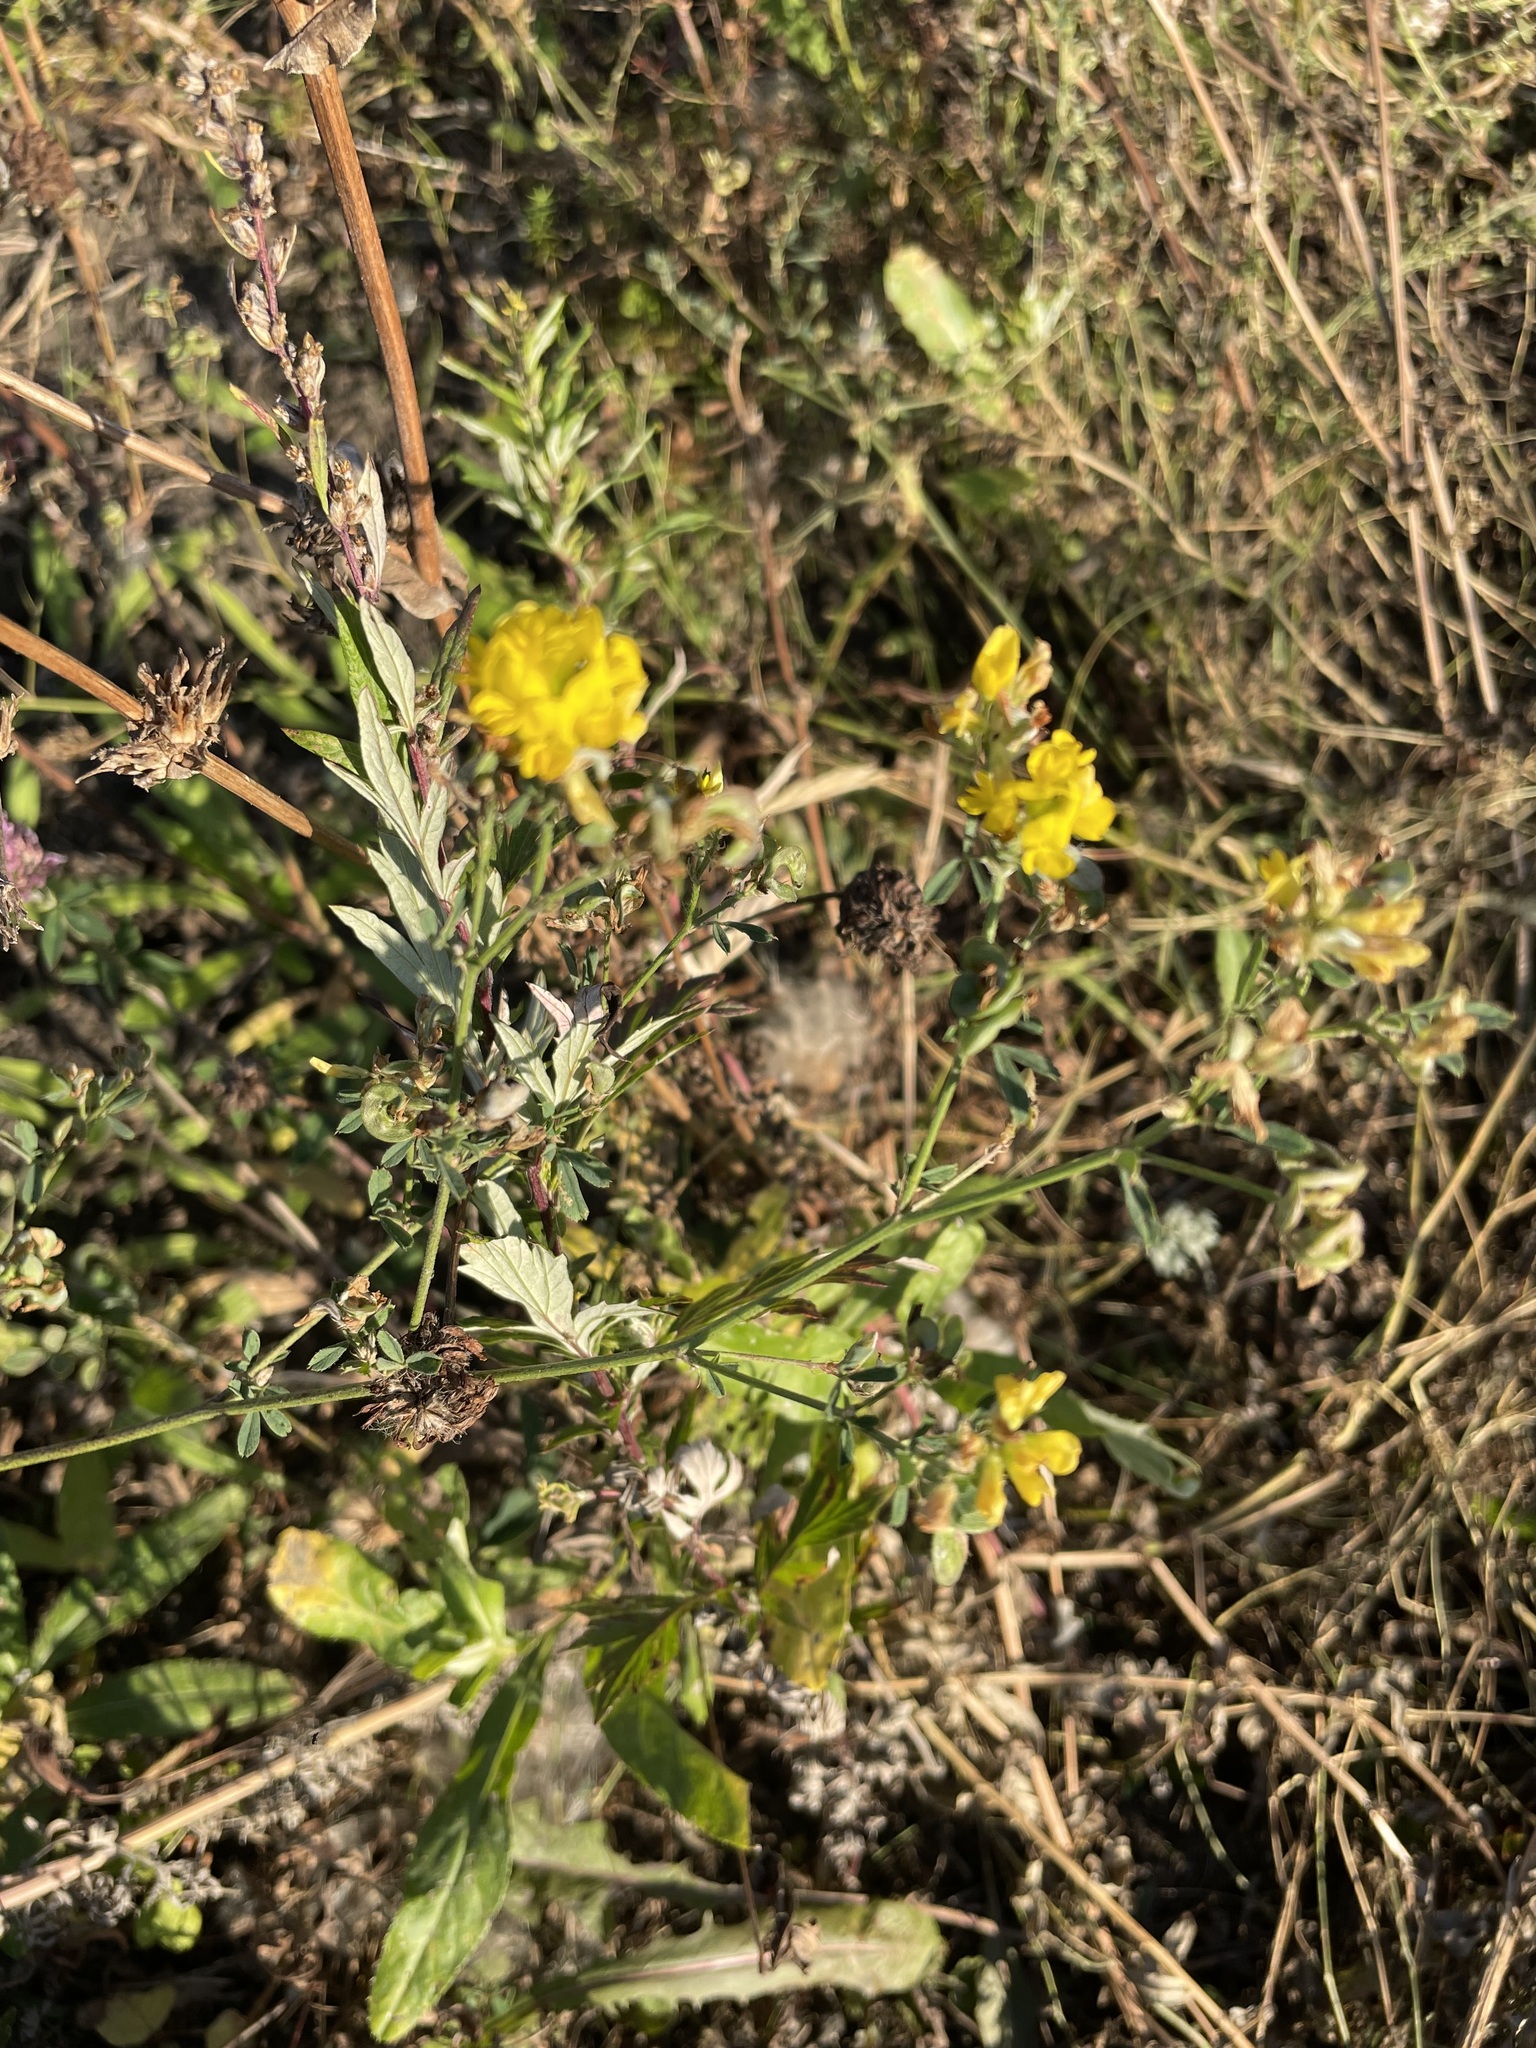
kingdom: Plantae
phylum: Tracheophyta
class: Magnoliopsida
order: Fabales
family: Fabaceae
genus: Medicago
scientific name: Medicago falcata
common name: Sickle medick
